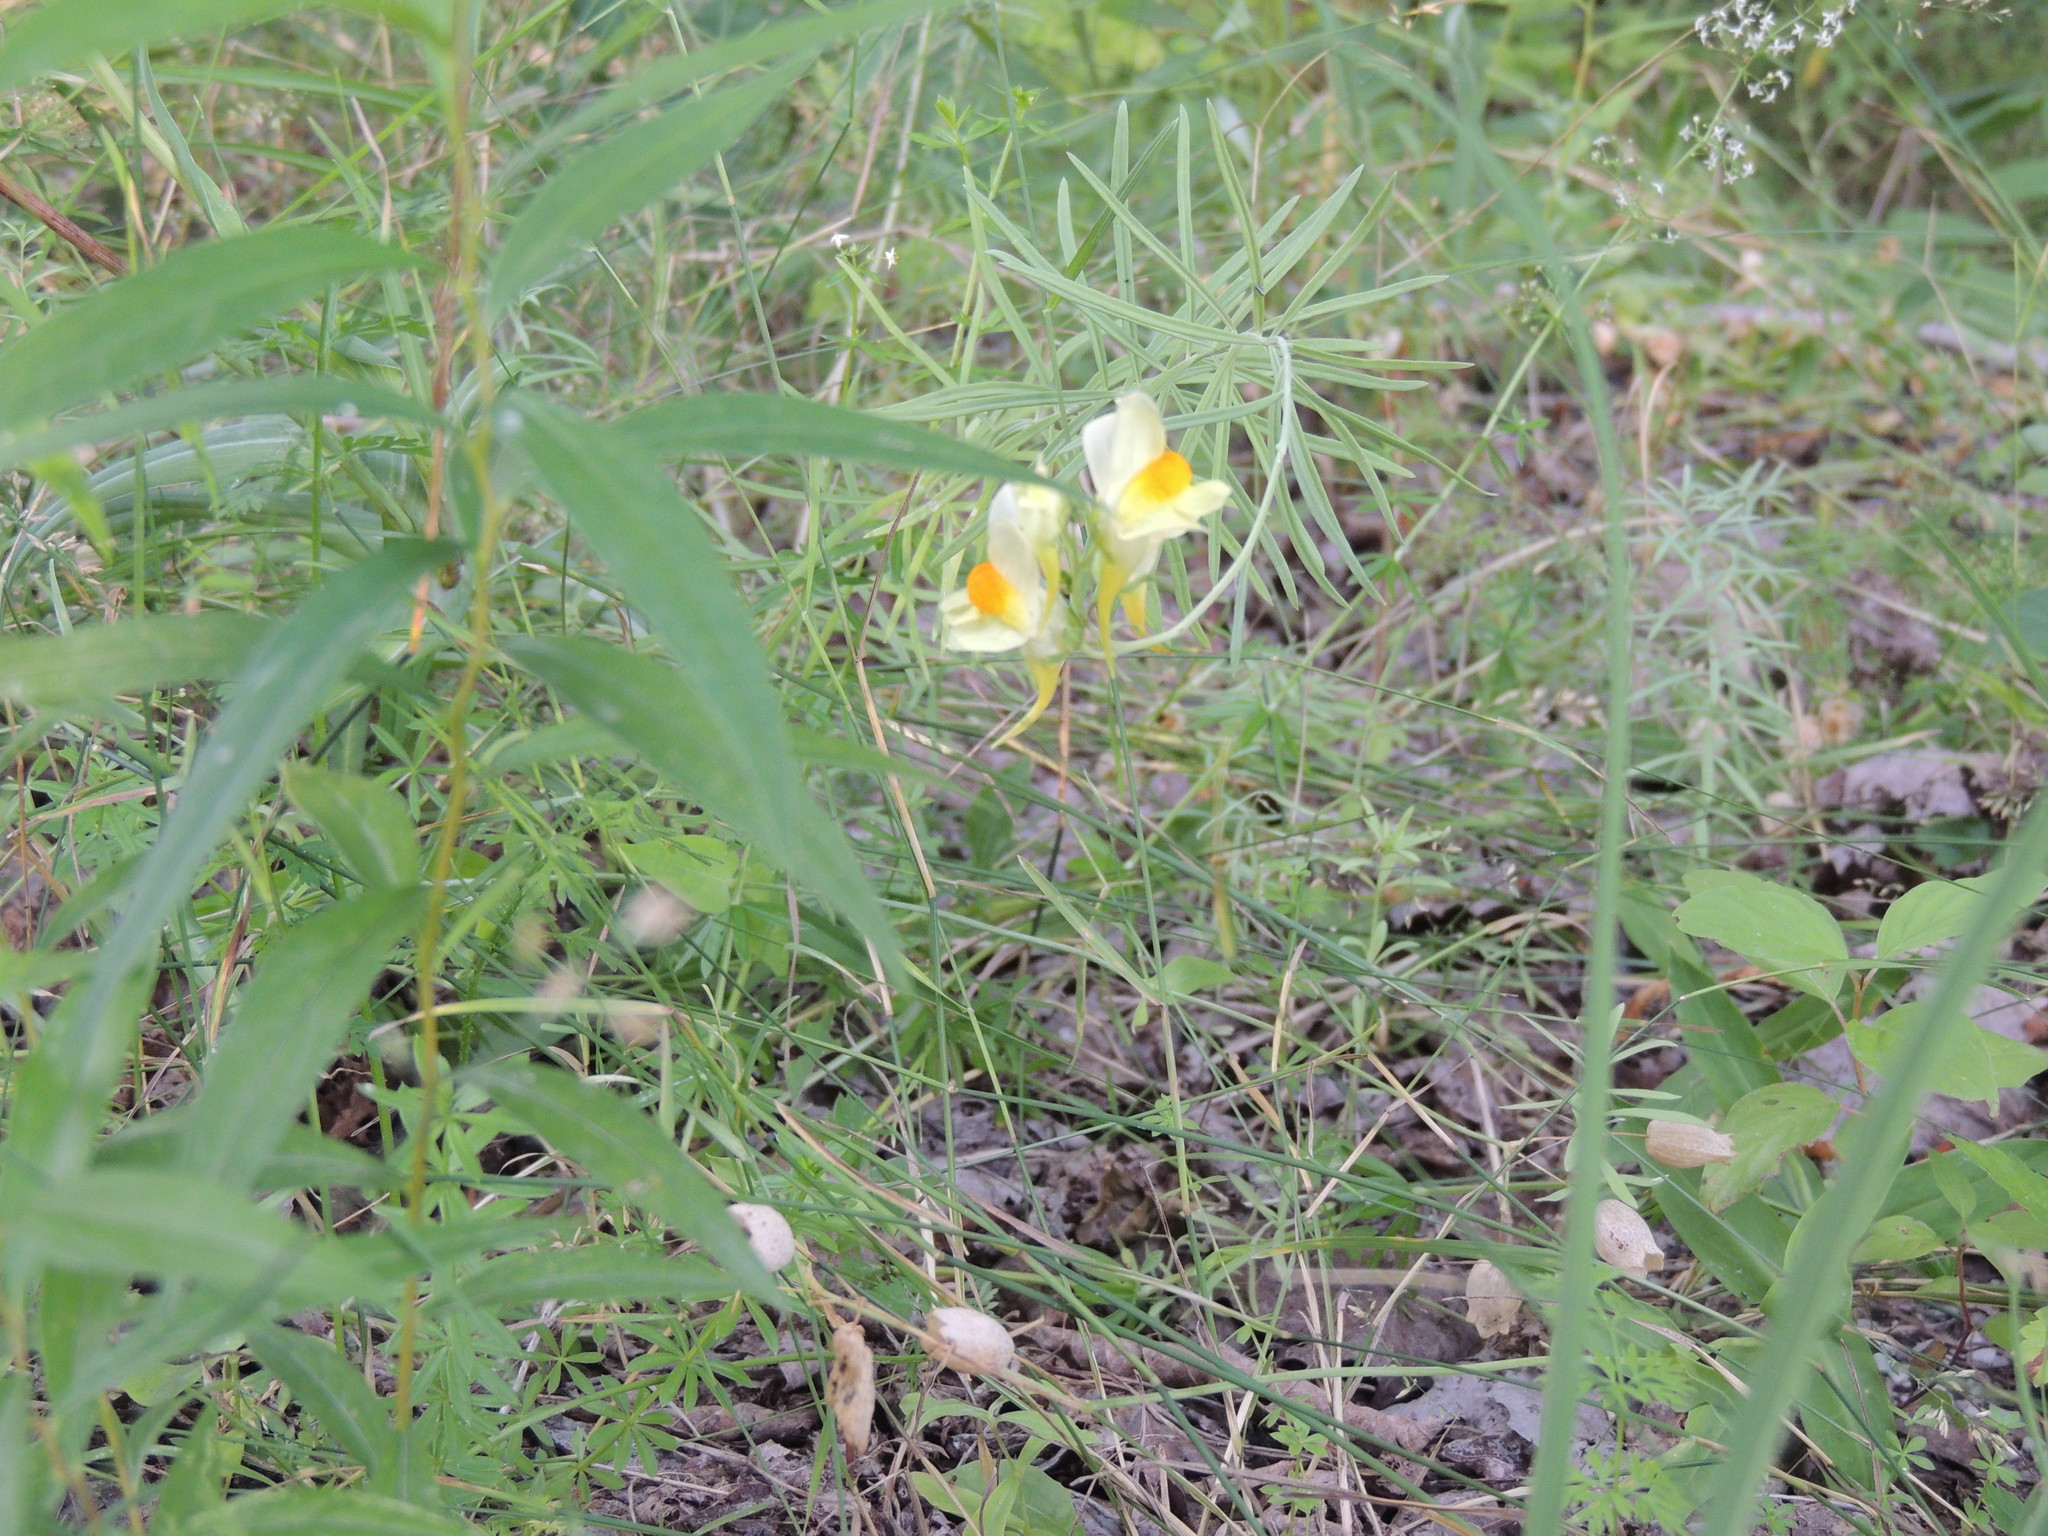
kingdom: Plantae
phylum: Tracheophyta
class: Magnoliopsida
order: Lamiales
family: Plantaginaceae
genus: Linaria
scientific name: Linaria vulgaris
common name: Butter and eggs
